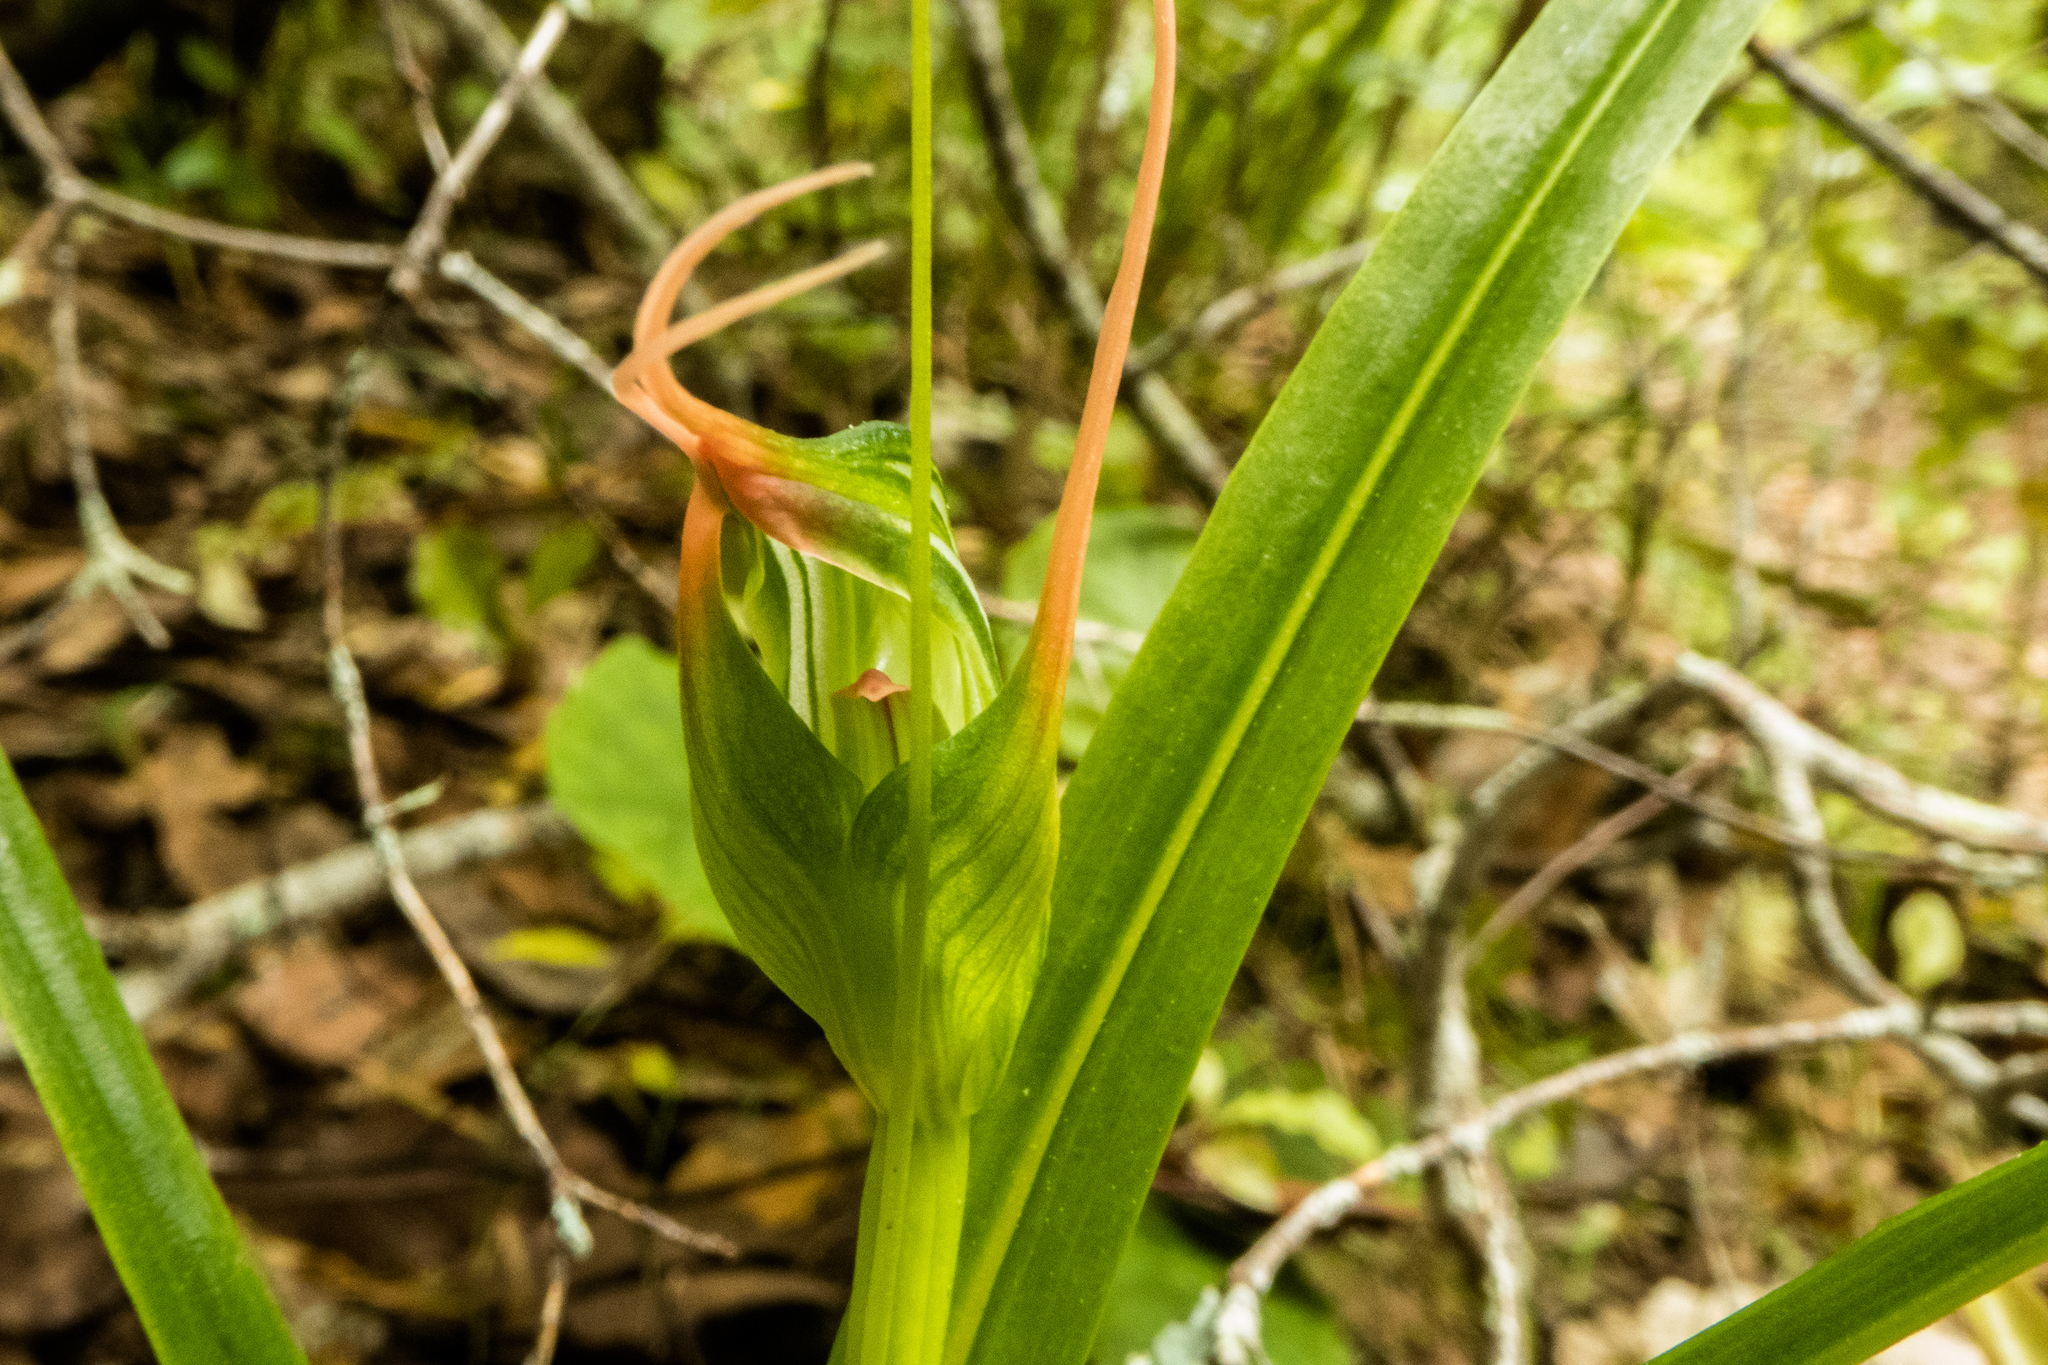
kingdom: Plantae
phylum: Tracheophyta
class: Liliopsida
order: Asparagales
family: Orchidaceae
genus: Pterostylis
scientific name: Pterostylis banksii
